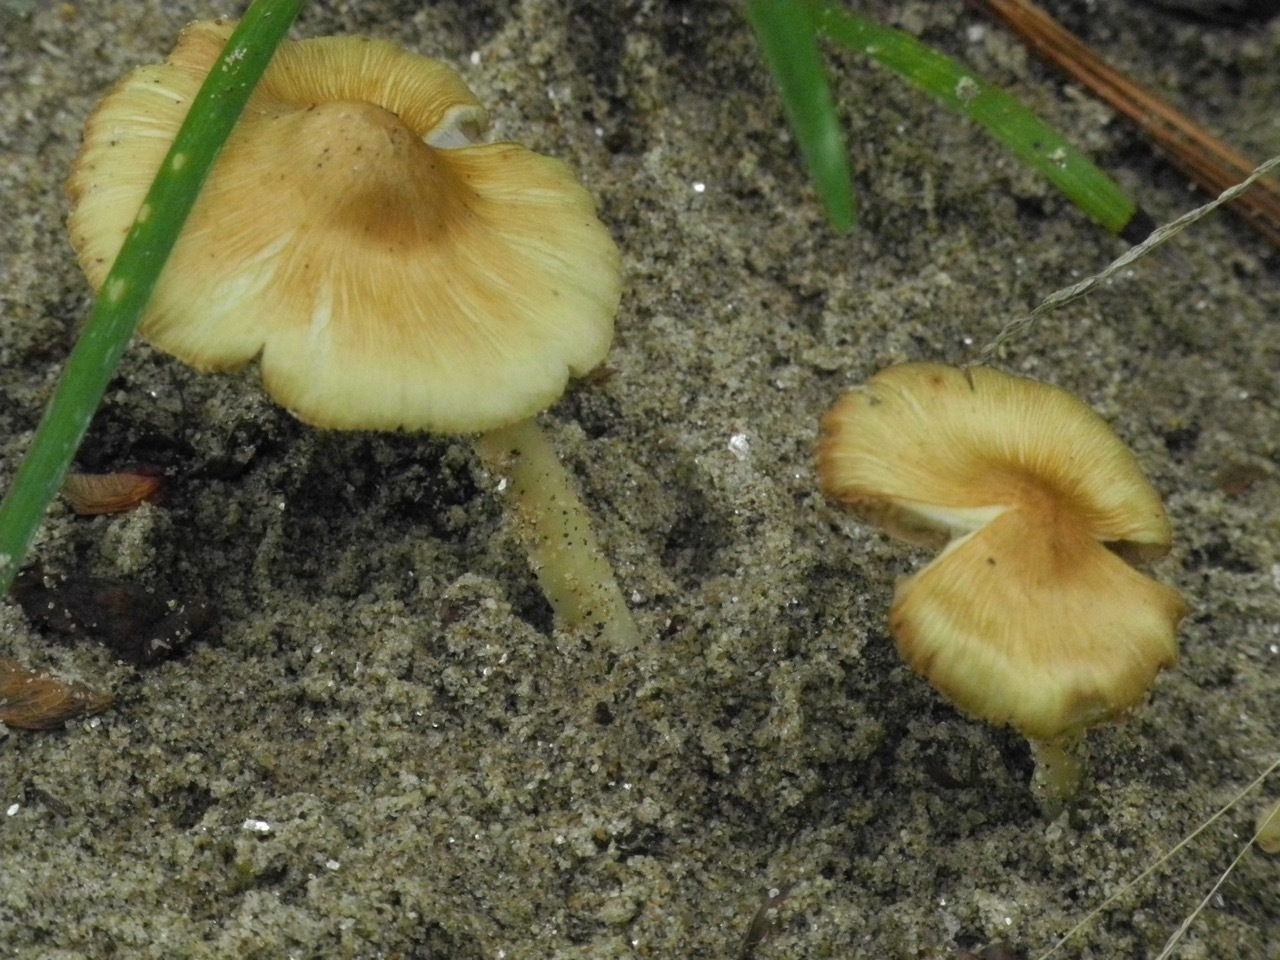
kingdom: Fungi
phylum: Basidiomycota
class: Agaricomycetes
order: Agaricales
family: Marasmiaceae
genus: Marasmius
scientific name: Marasmius oreades
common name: Fairy ring champignon
